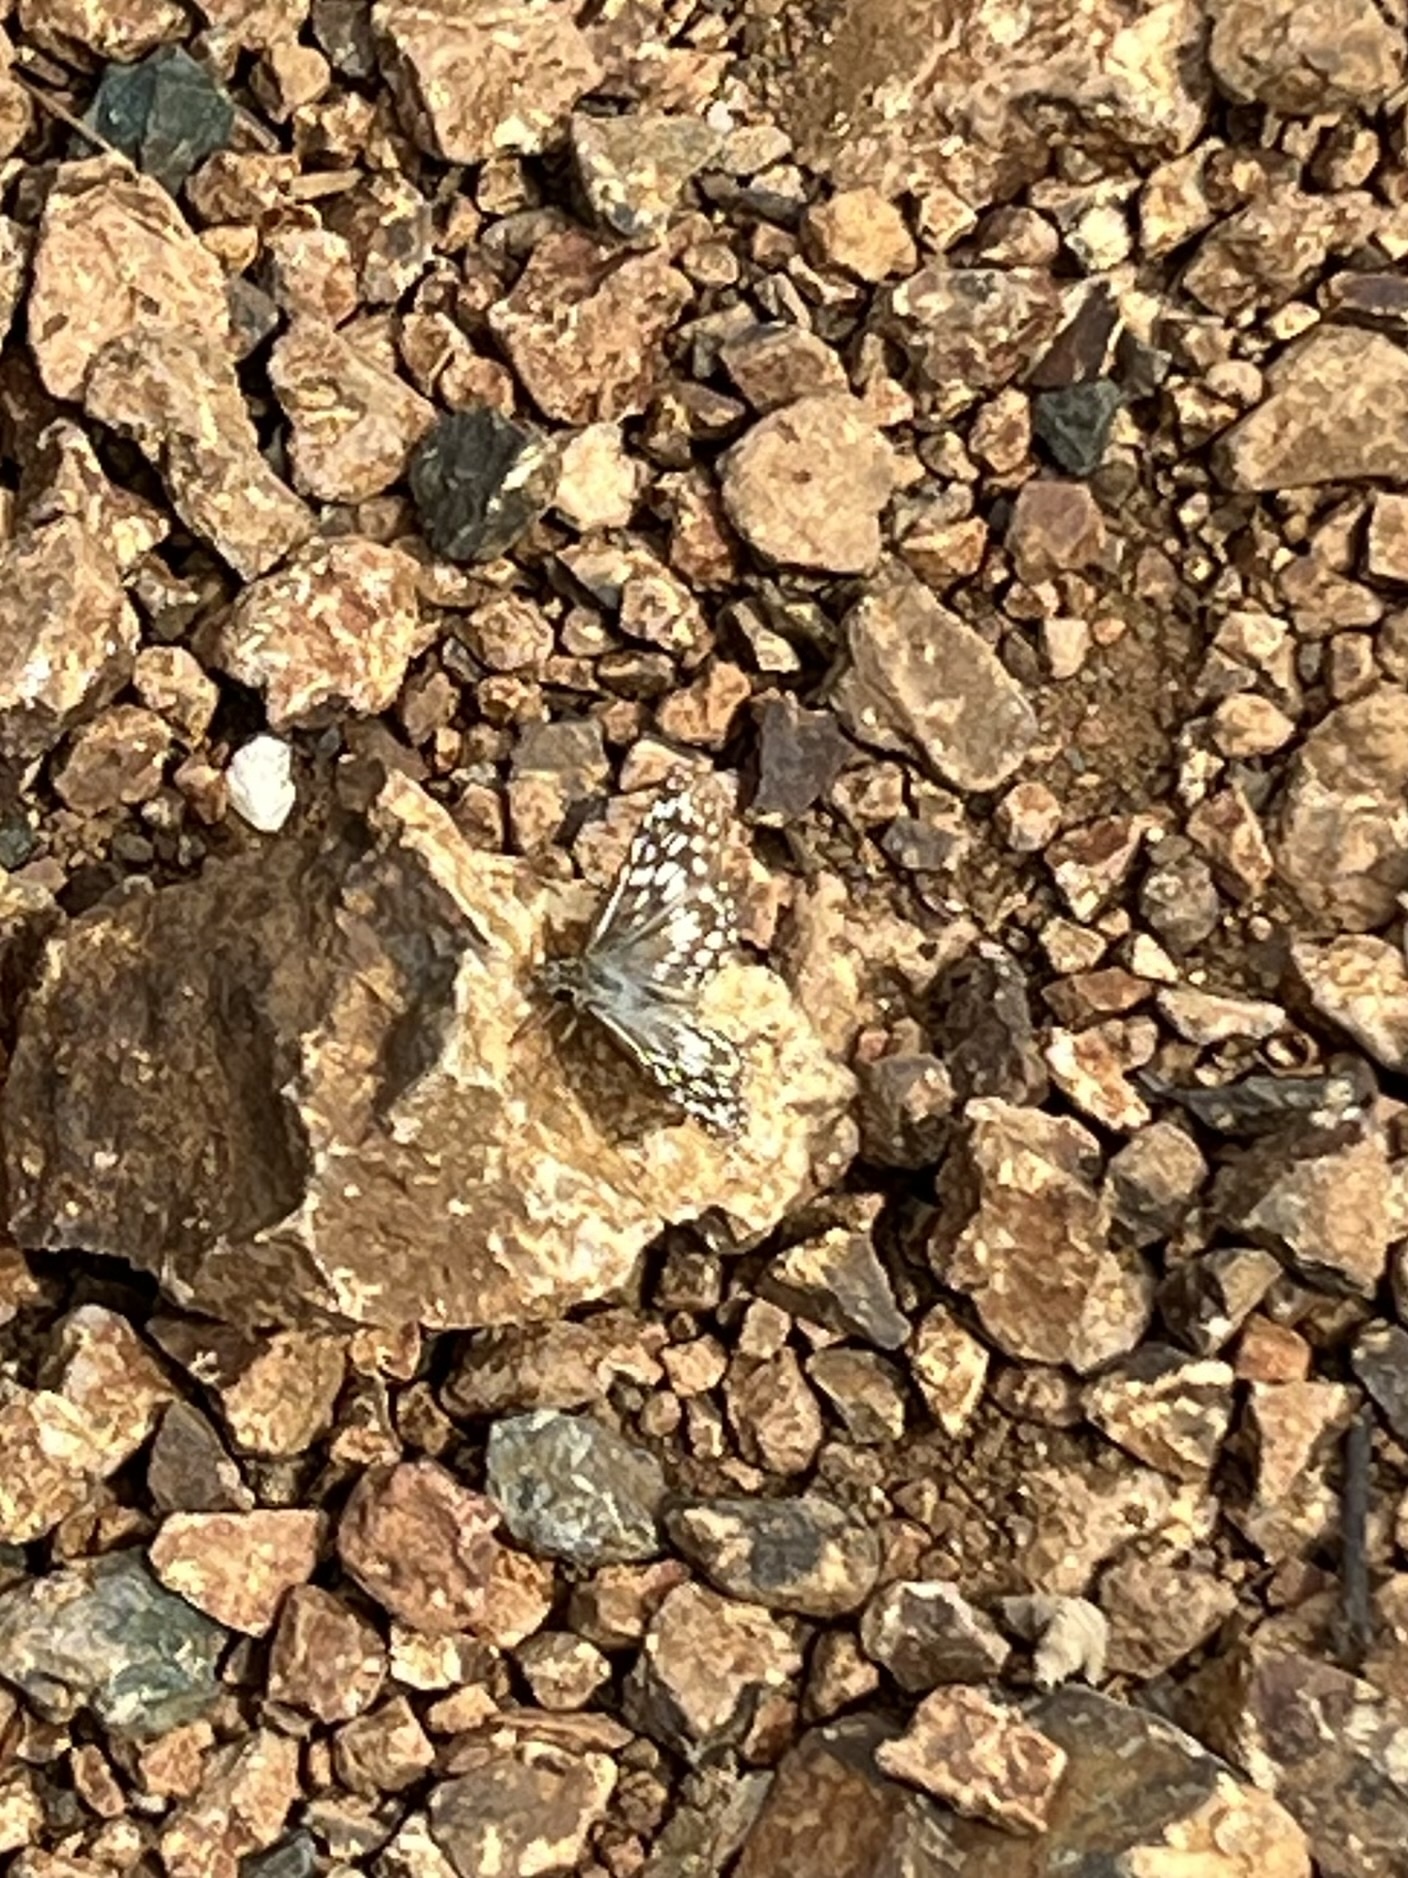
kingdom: Animalia
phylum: Arthropoda
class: Insecta
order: Lepidoptera
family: Hesperiidae
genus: Pyrgus
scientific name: Pyrgus oileus
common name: Tropical checkered-skipper
